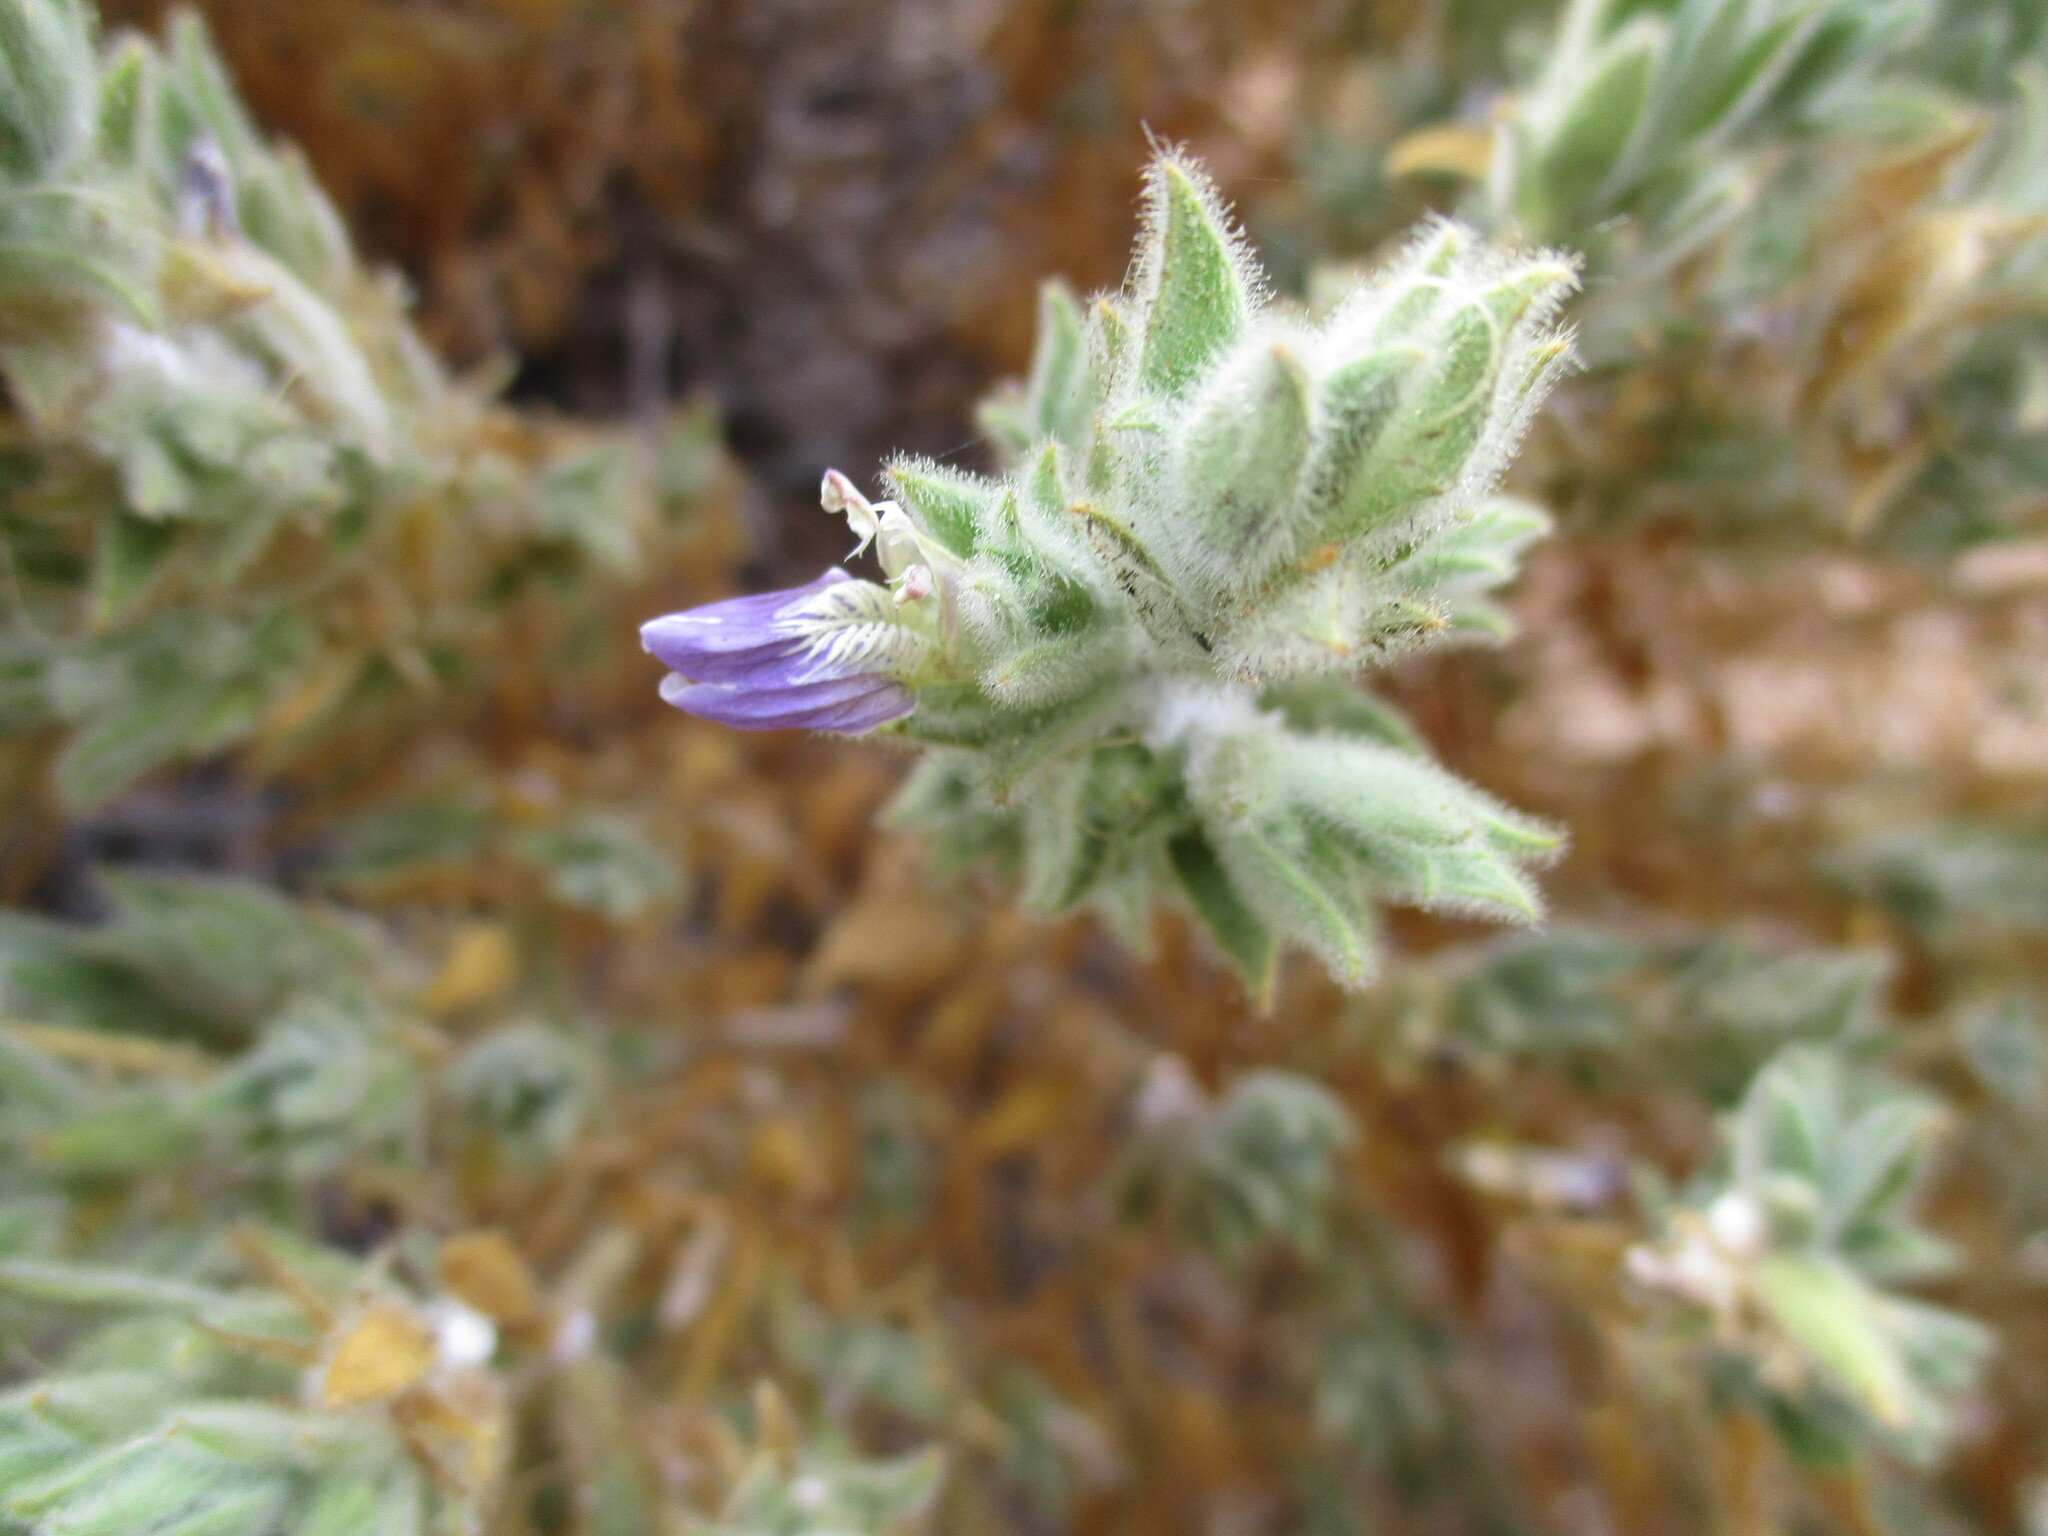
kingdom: Plantae
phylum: Tracheophyta
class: Magnoliopsida
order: Lamiales
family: Acanthaceae
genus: Pogonospermum
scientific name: Pogonospermum
